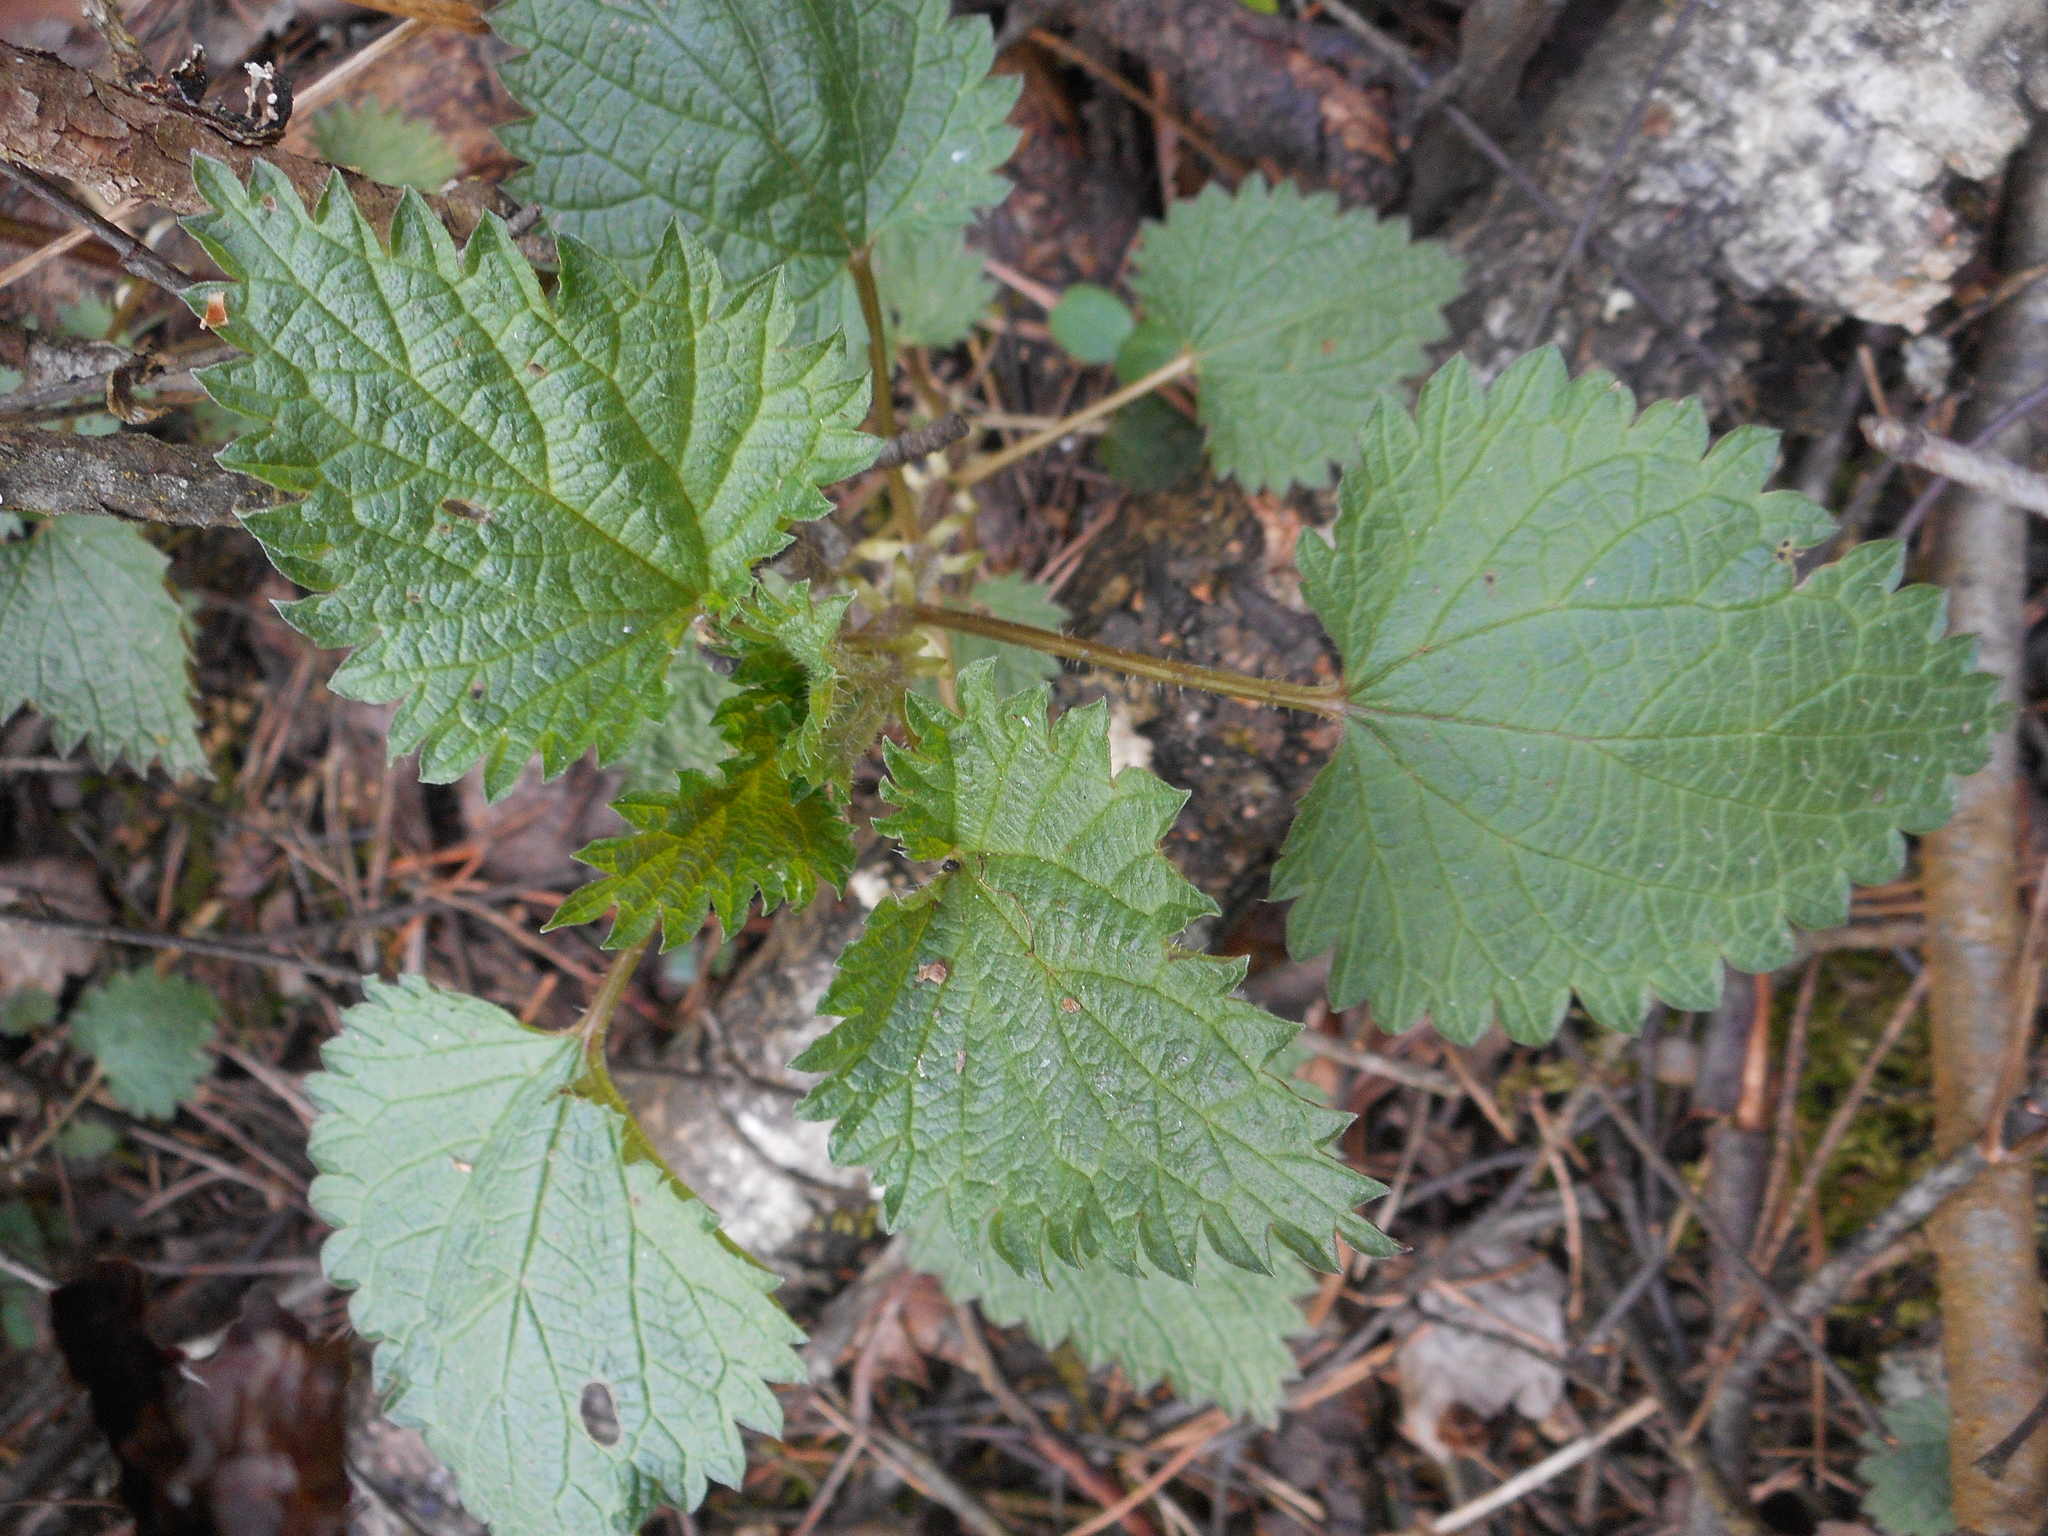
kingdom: Plantae
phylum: Tracheophyta
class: Magnoliopsida
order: Rosales
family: Urticaceae
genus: Urtica
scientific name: Urtica dioica
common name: Common nettle
